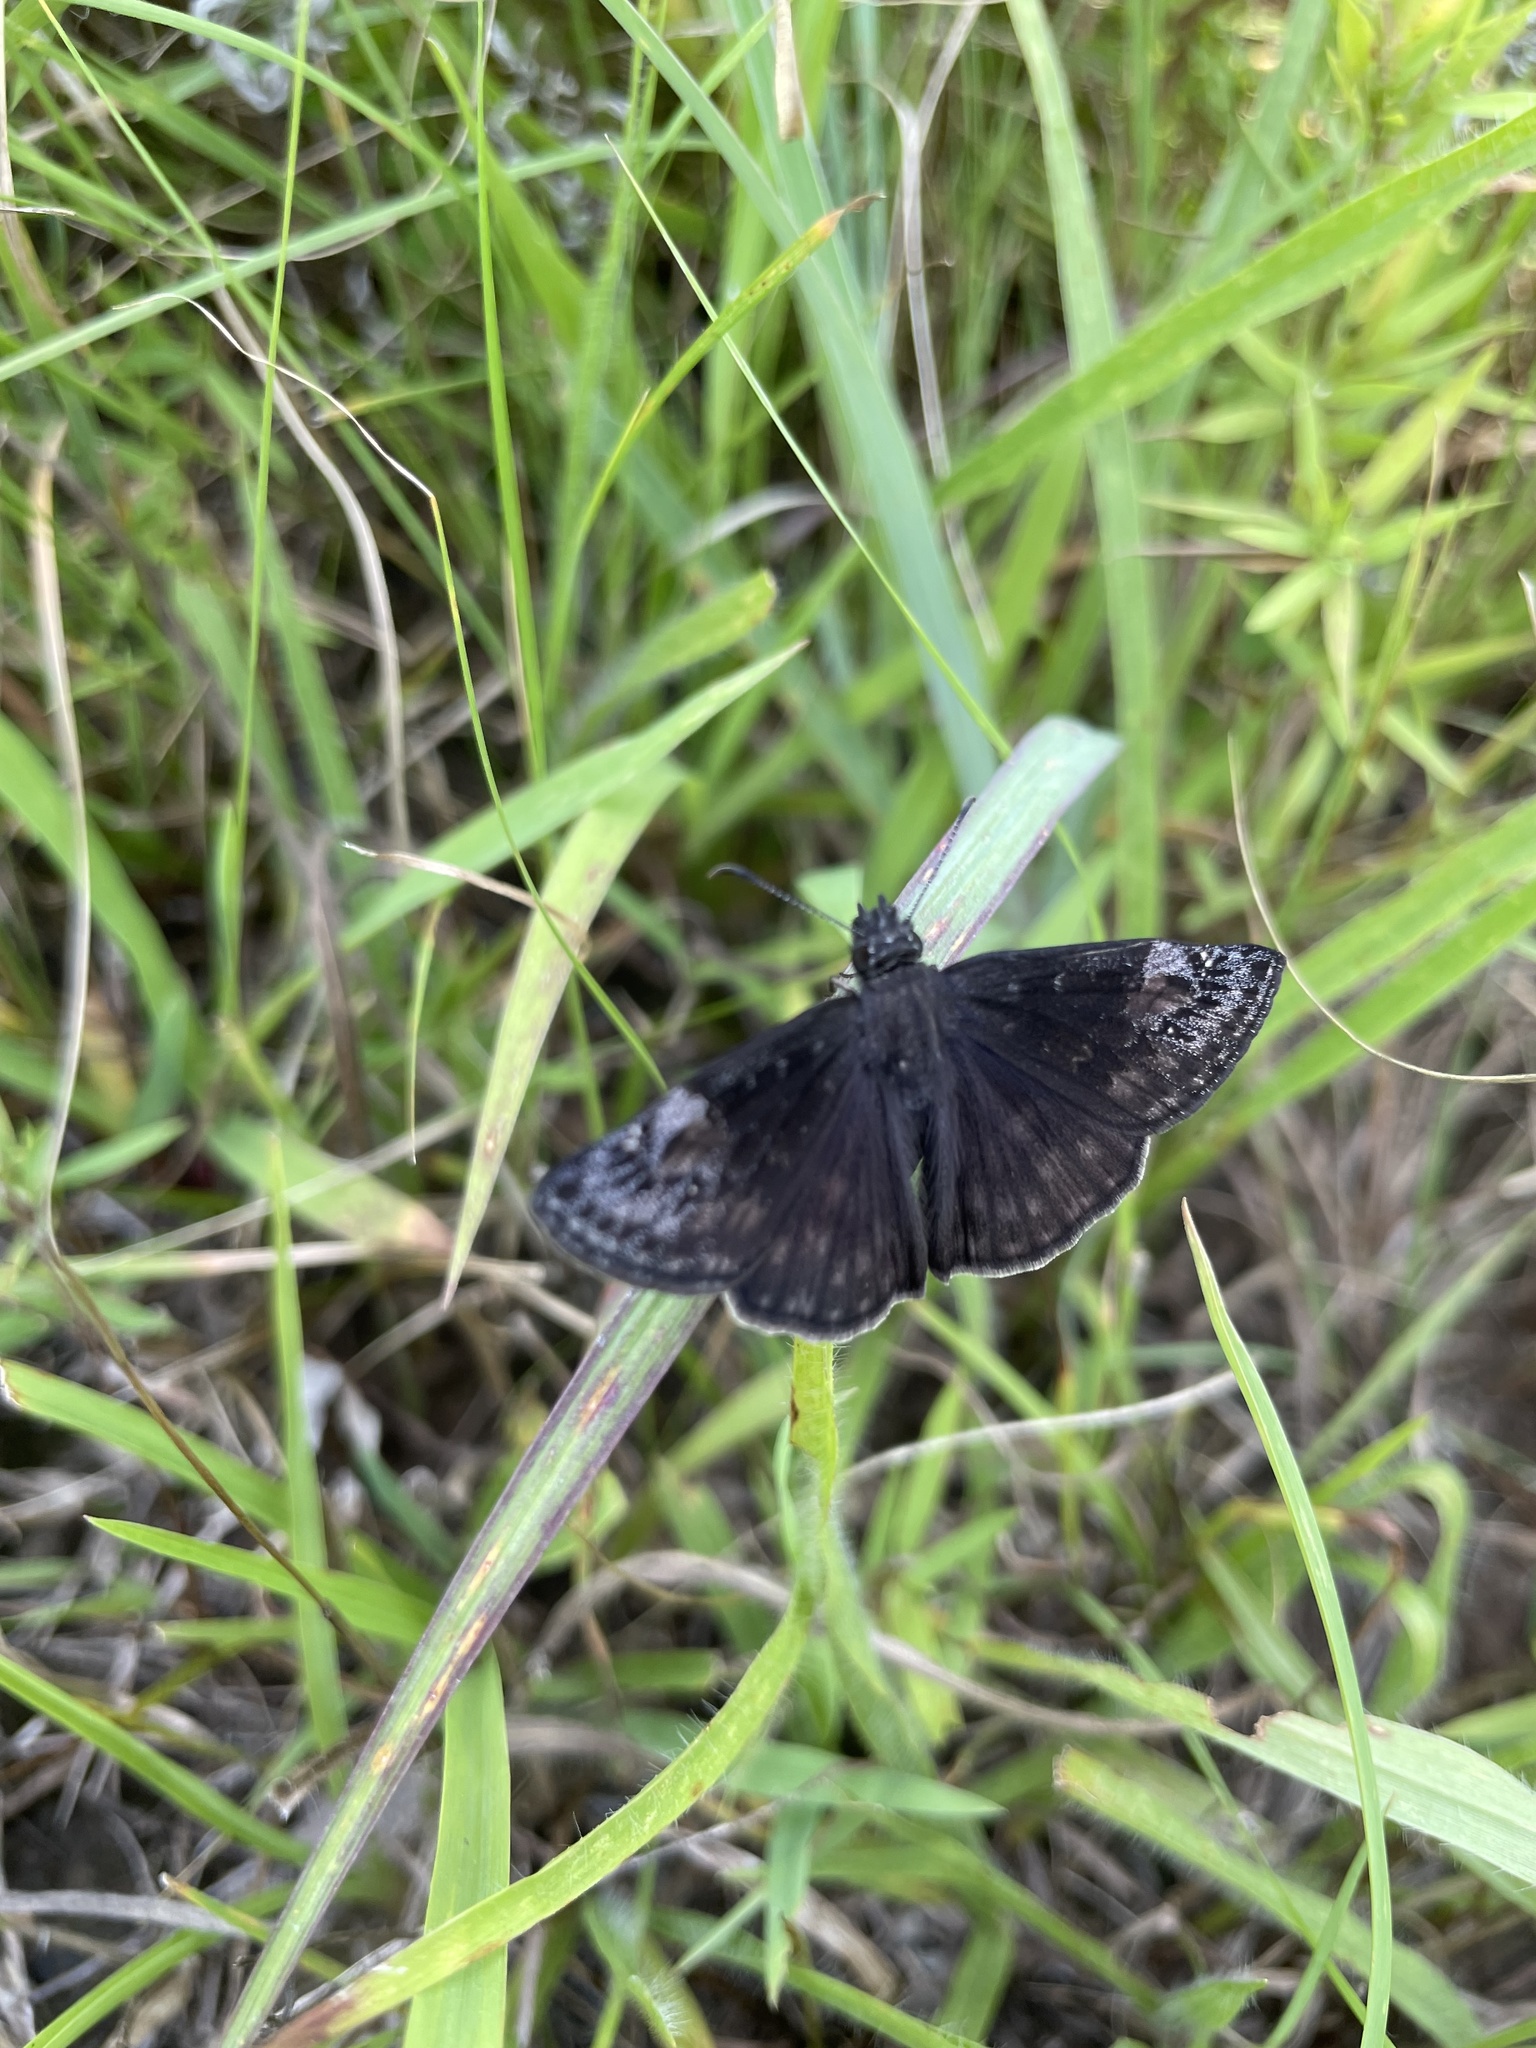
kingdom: Animalia
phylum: Arthropoda
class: Insecta
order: Lepidoptera
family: Hesperiidae
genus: Erynnis
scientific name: Erynnis baptisiae
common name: Wild indigo duskywing
